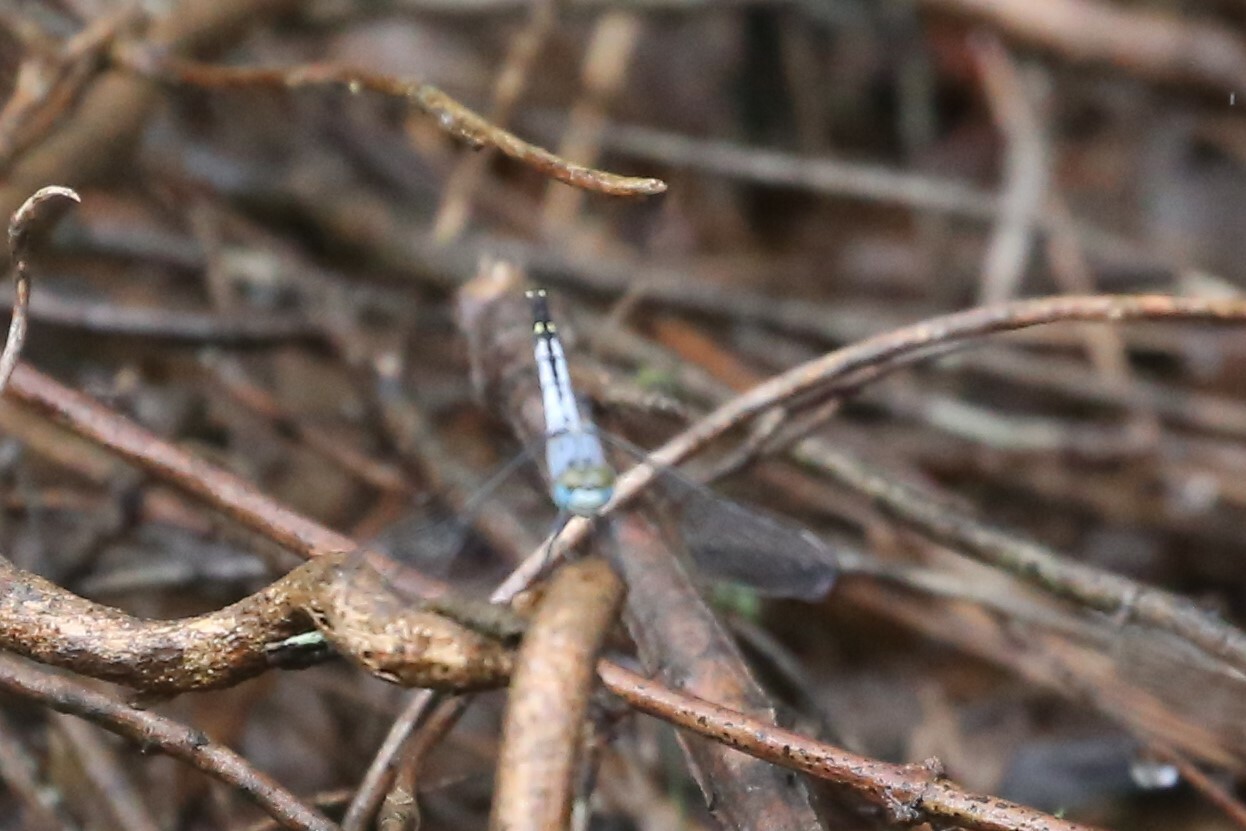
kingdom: Animalia
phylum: Arthropoda
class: Insecta
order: Odonata
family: Libellulidae
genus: Diplacodes
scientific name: Diplacodes trivialis
